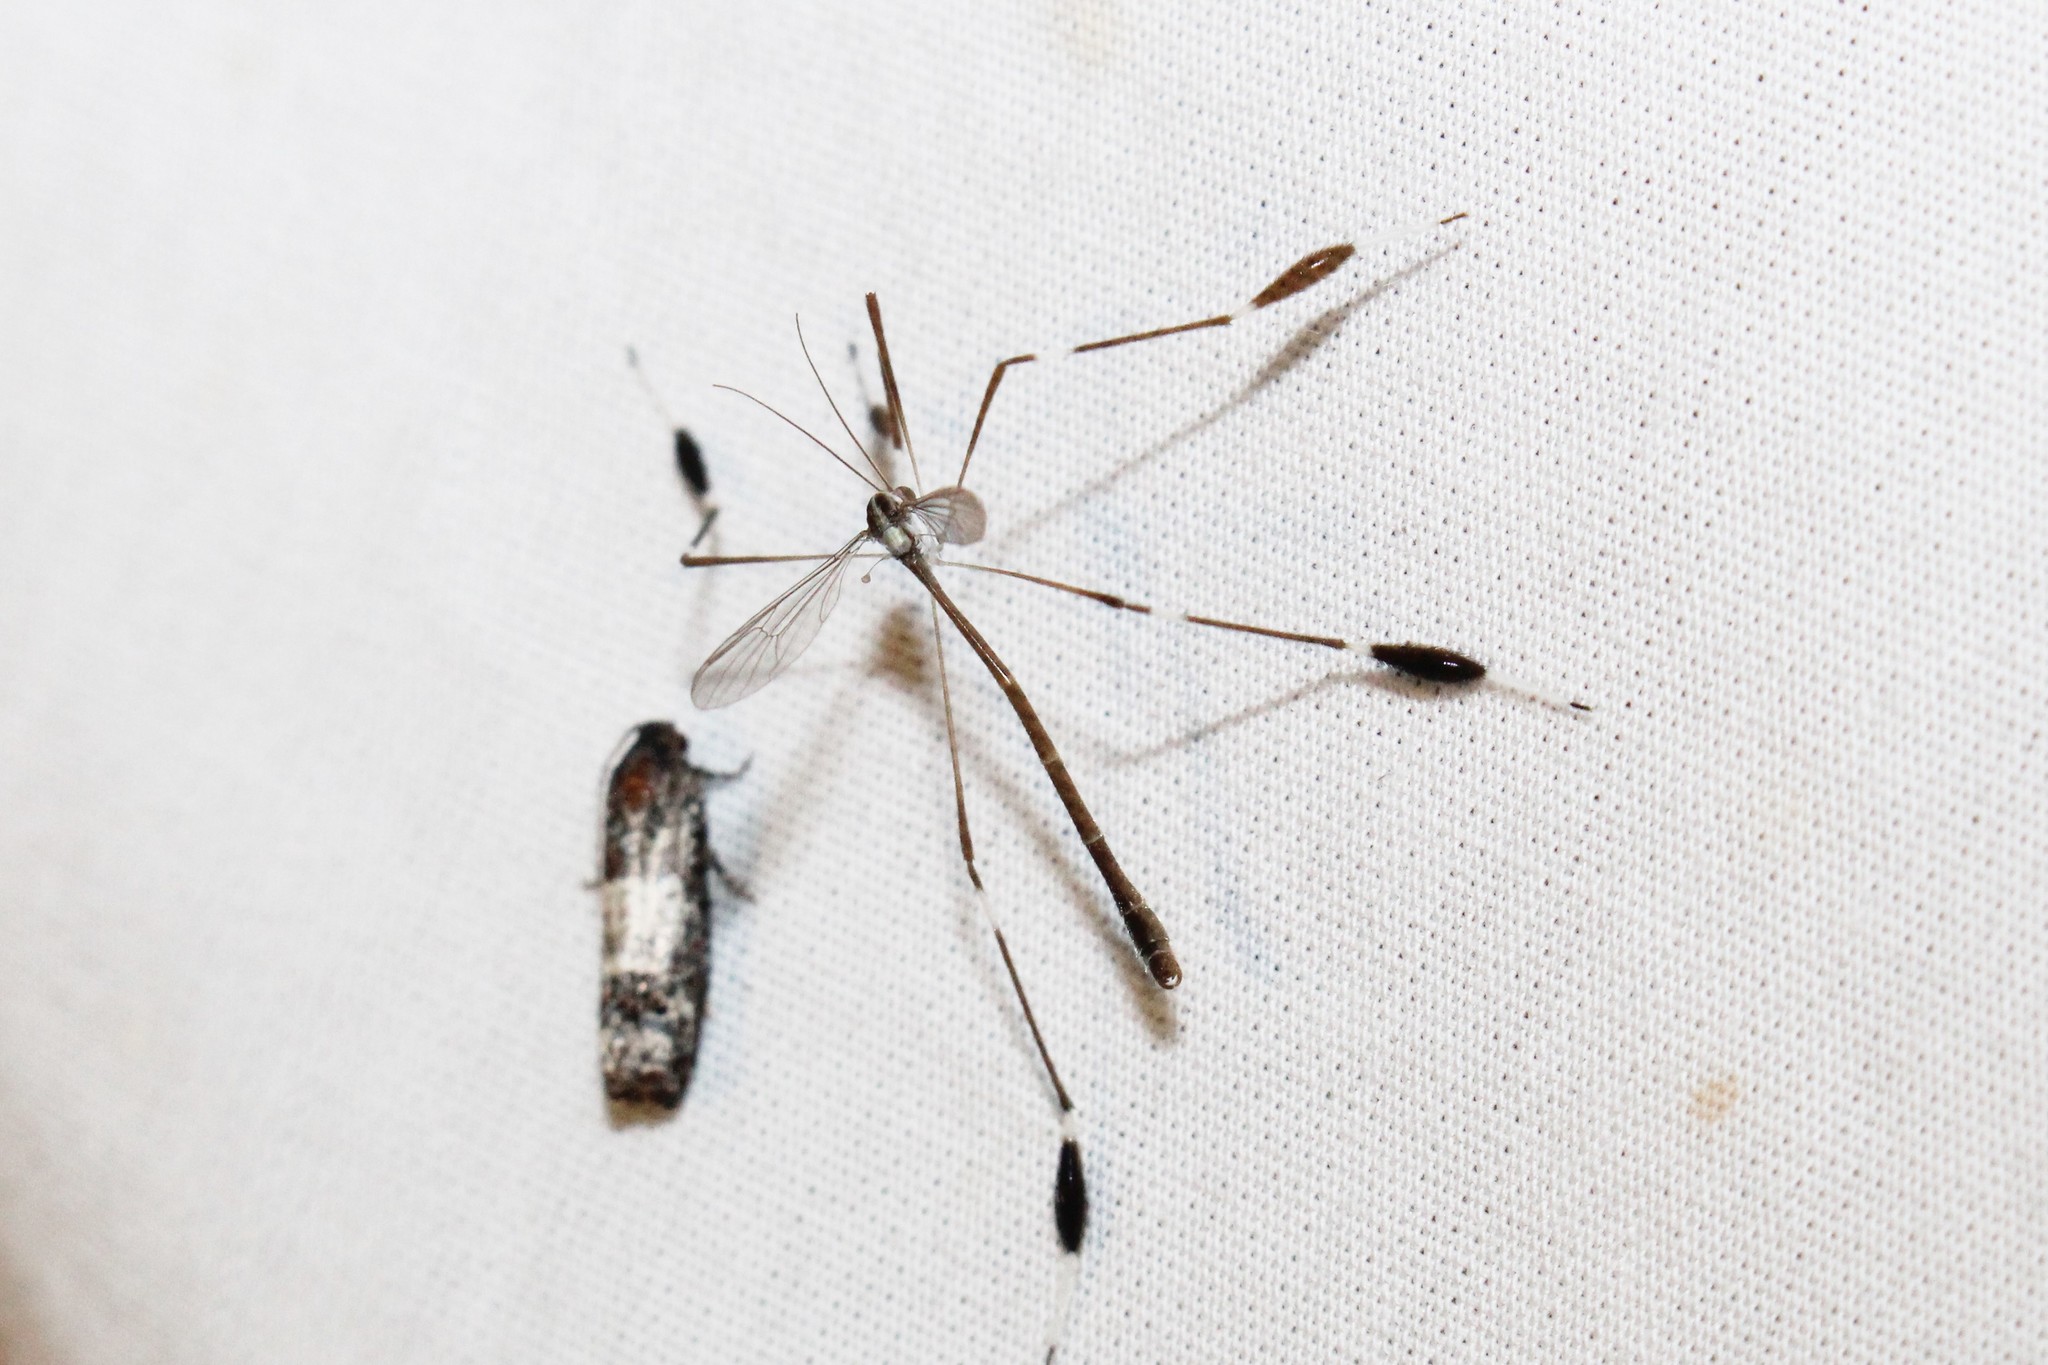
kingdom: Animalia
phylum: Arthropoda
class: Insecta
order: Diptera
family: Ptychopteridae
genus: Bittacomorpha
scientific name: Bittacomorpha clavipes
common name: Eastern phantom crane fly
